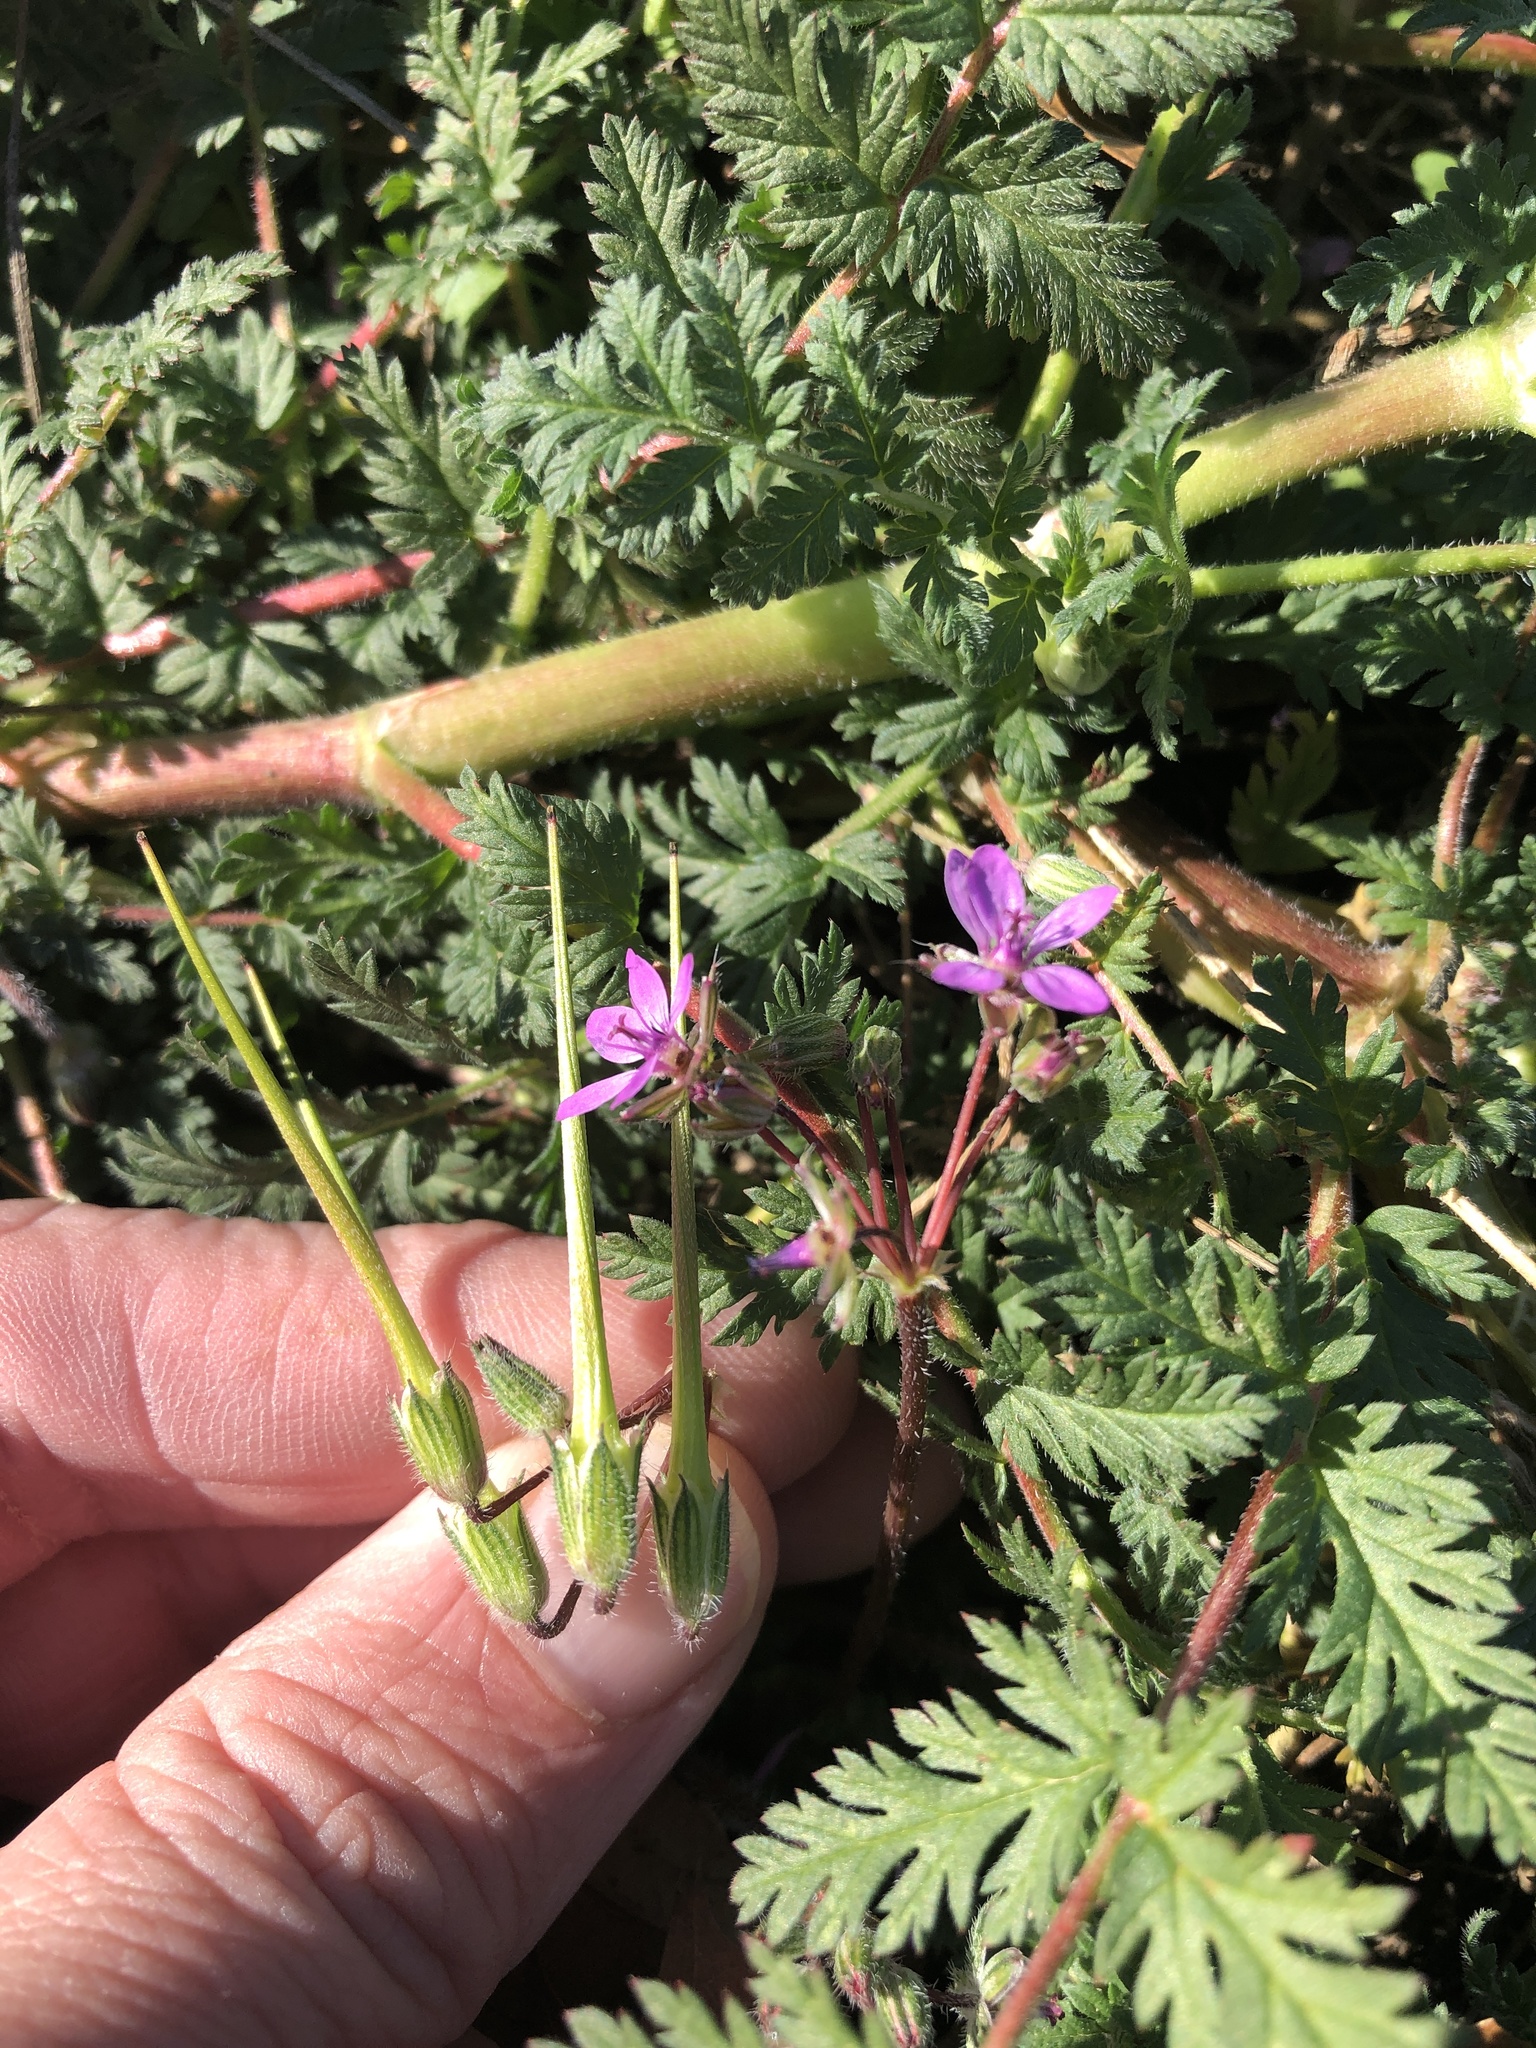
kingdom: Plantae
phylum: Tracheophyta
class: Magnoliopsida
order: Geraniales
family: Geraniaceae
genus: Erodium
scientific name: Erodium cicutarium
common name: Common stork's-bill
